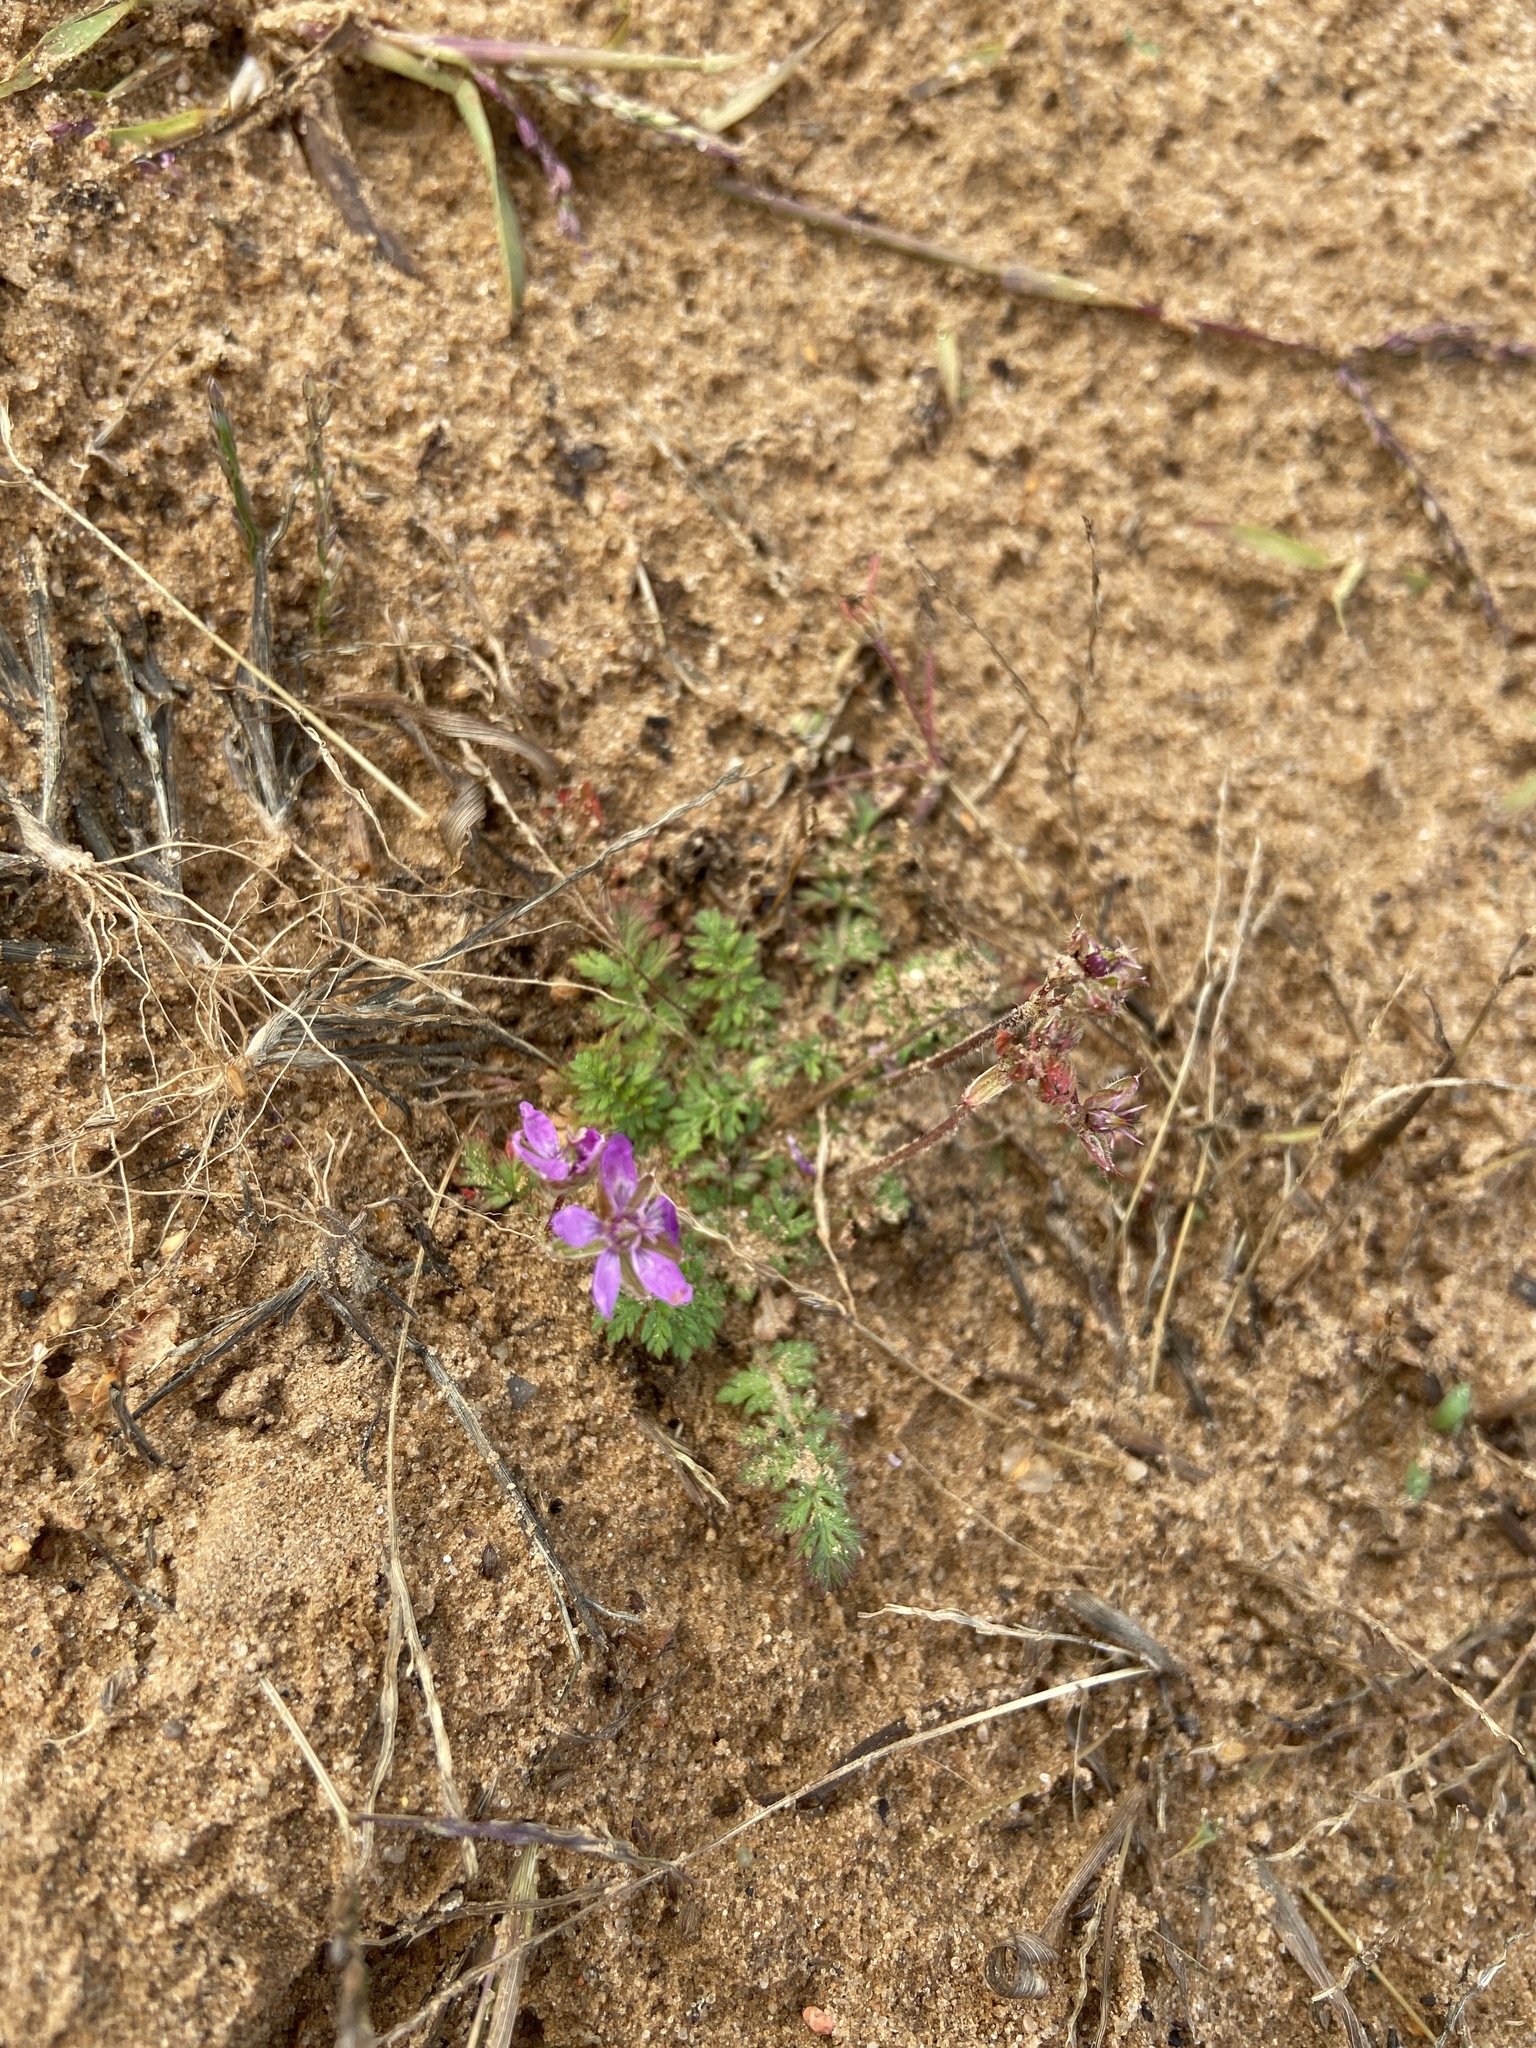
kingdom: Plantae
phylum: Tracheophyta
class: Magnoliopsida
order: Geraniales
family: Geraniaceae
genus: Erodium
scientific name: Erodium cicutarium
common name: Common stork's-bill
